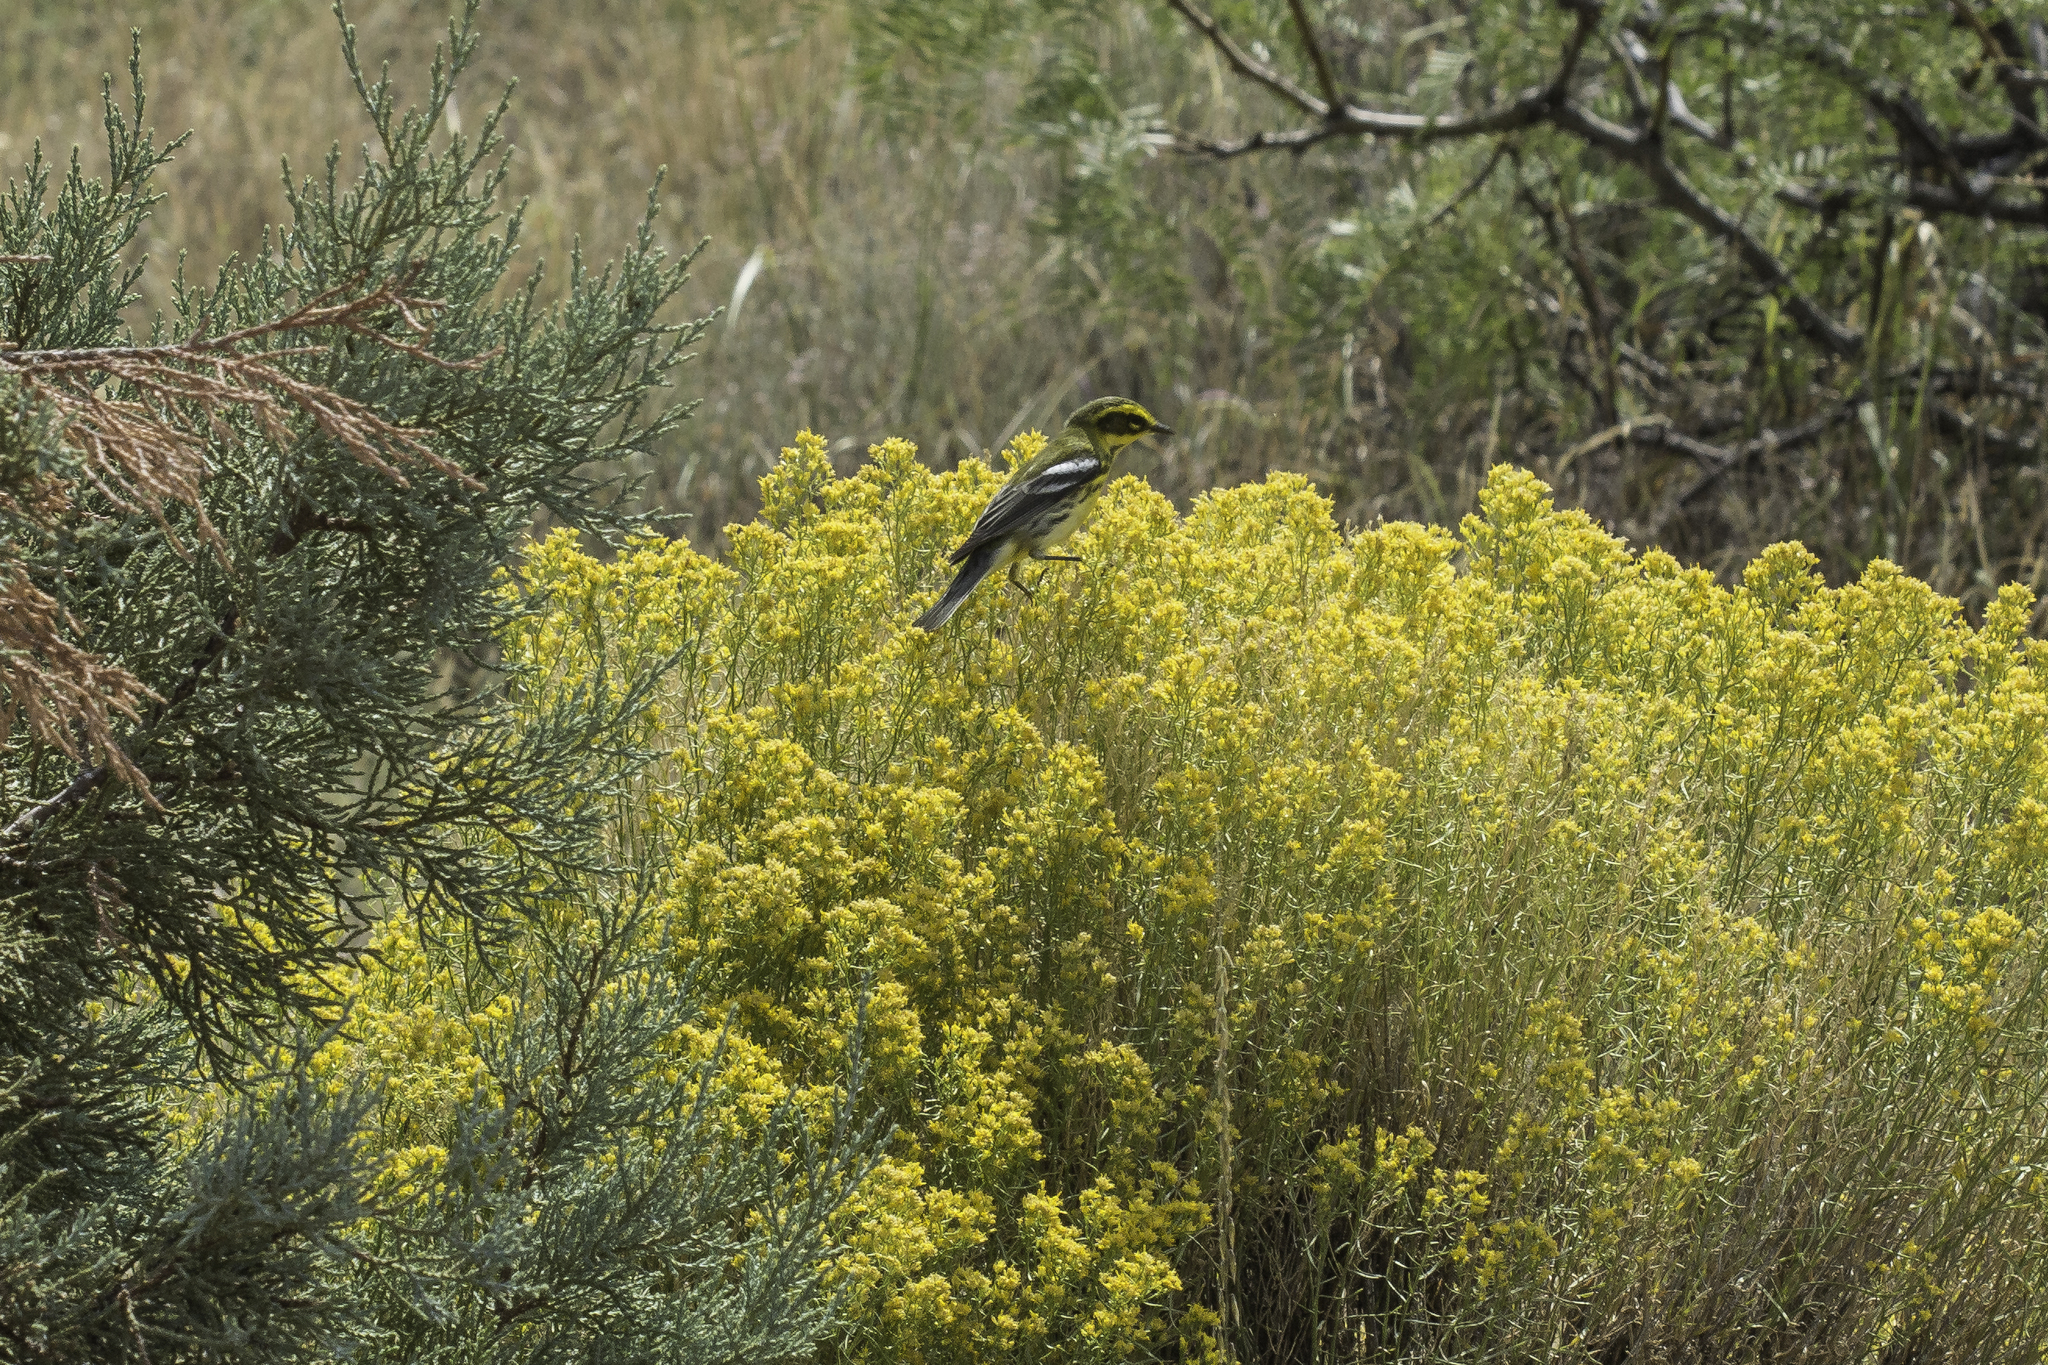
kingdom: Animalia
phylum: Chordata
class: Aves
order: Passeriformes
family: Parulidae
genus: Setophaga
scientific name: Setophaga townsendi
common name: Townsend's warbler
